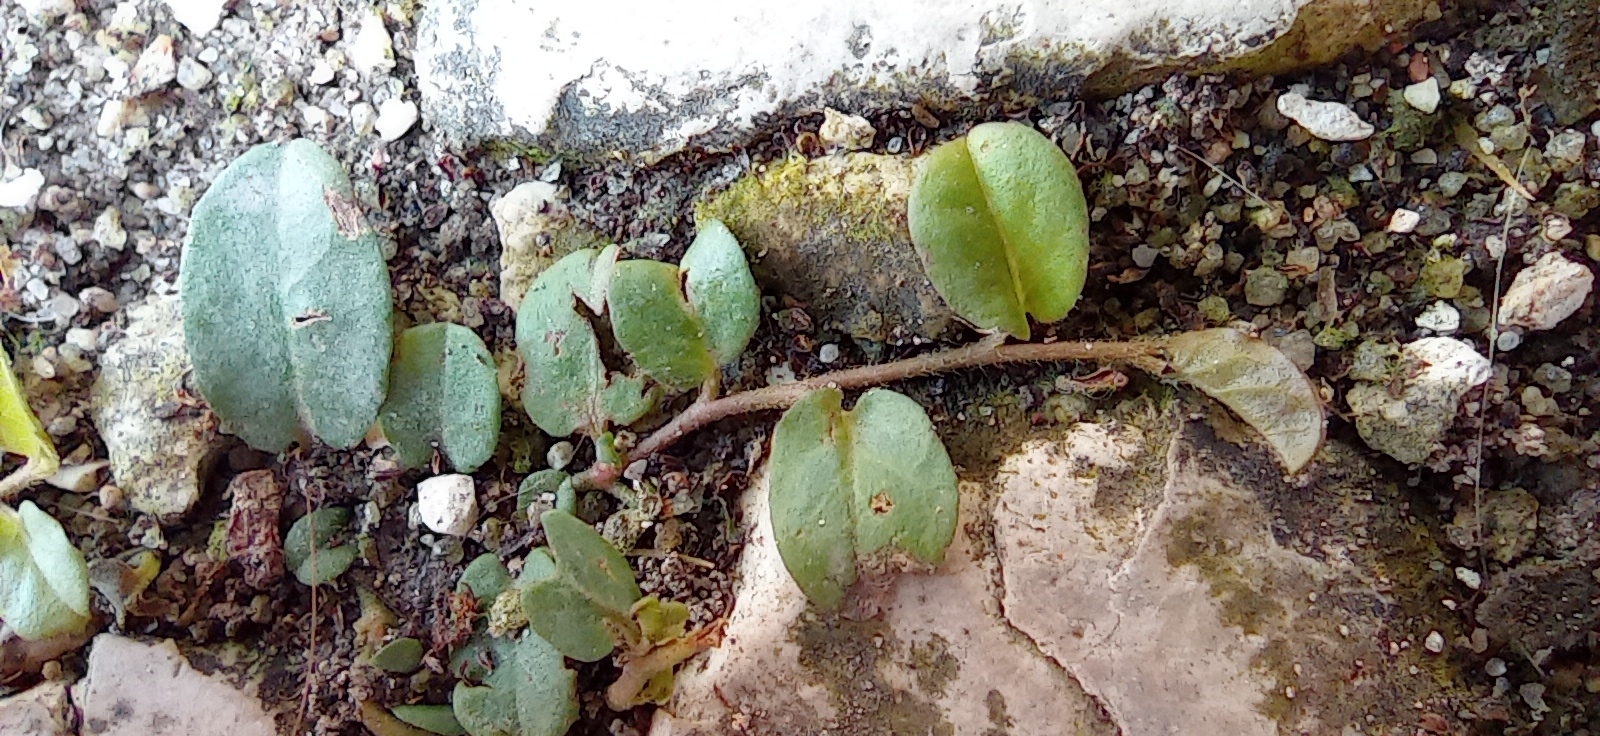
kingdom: Plantae
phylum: Tracheophyta
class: Magnoliopsida
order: Solanales
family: Convolvulaceae
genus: Evolvulus
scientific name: Evolvulus nummularius
